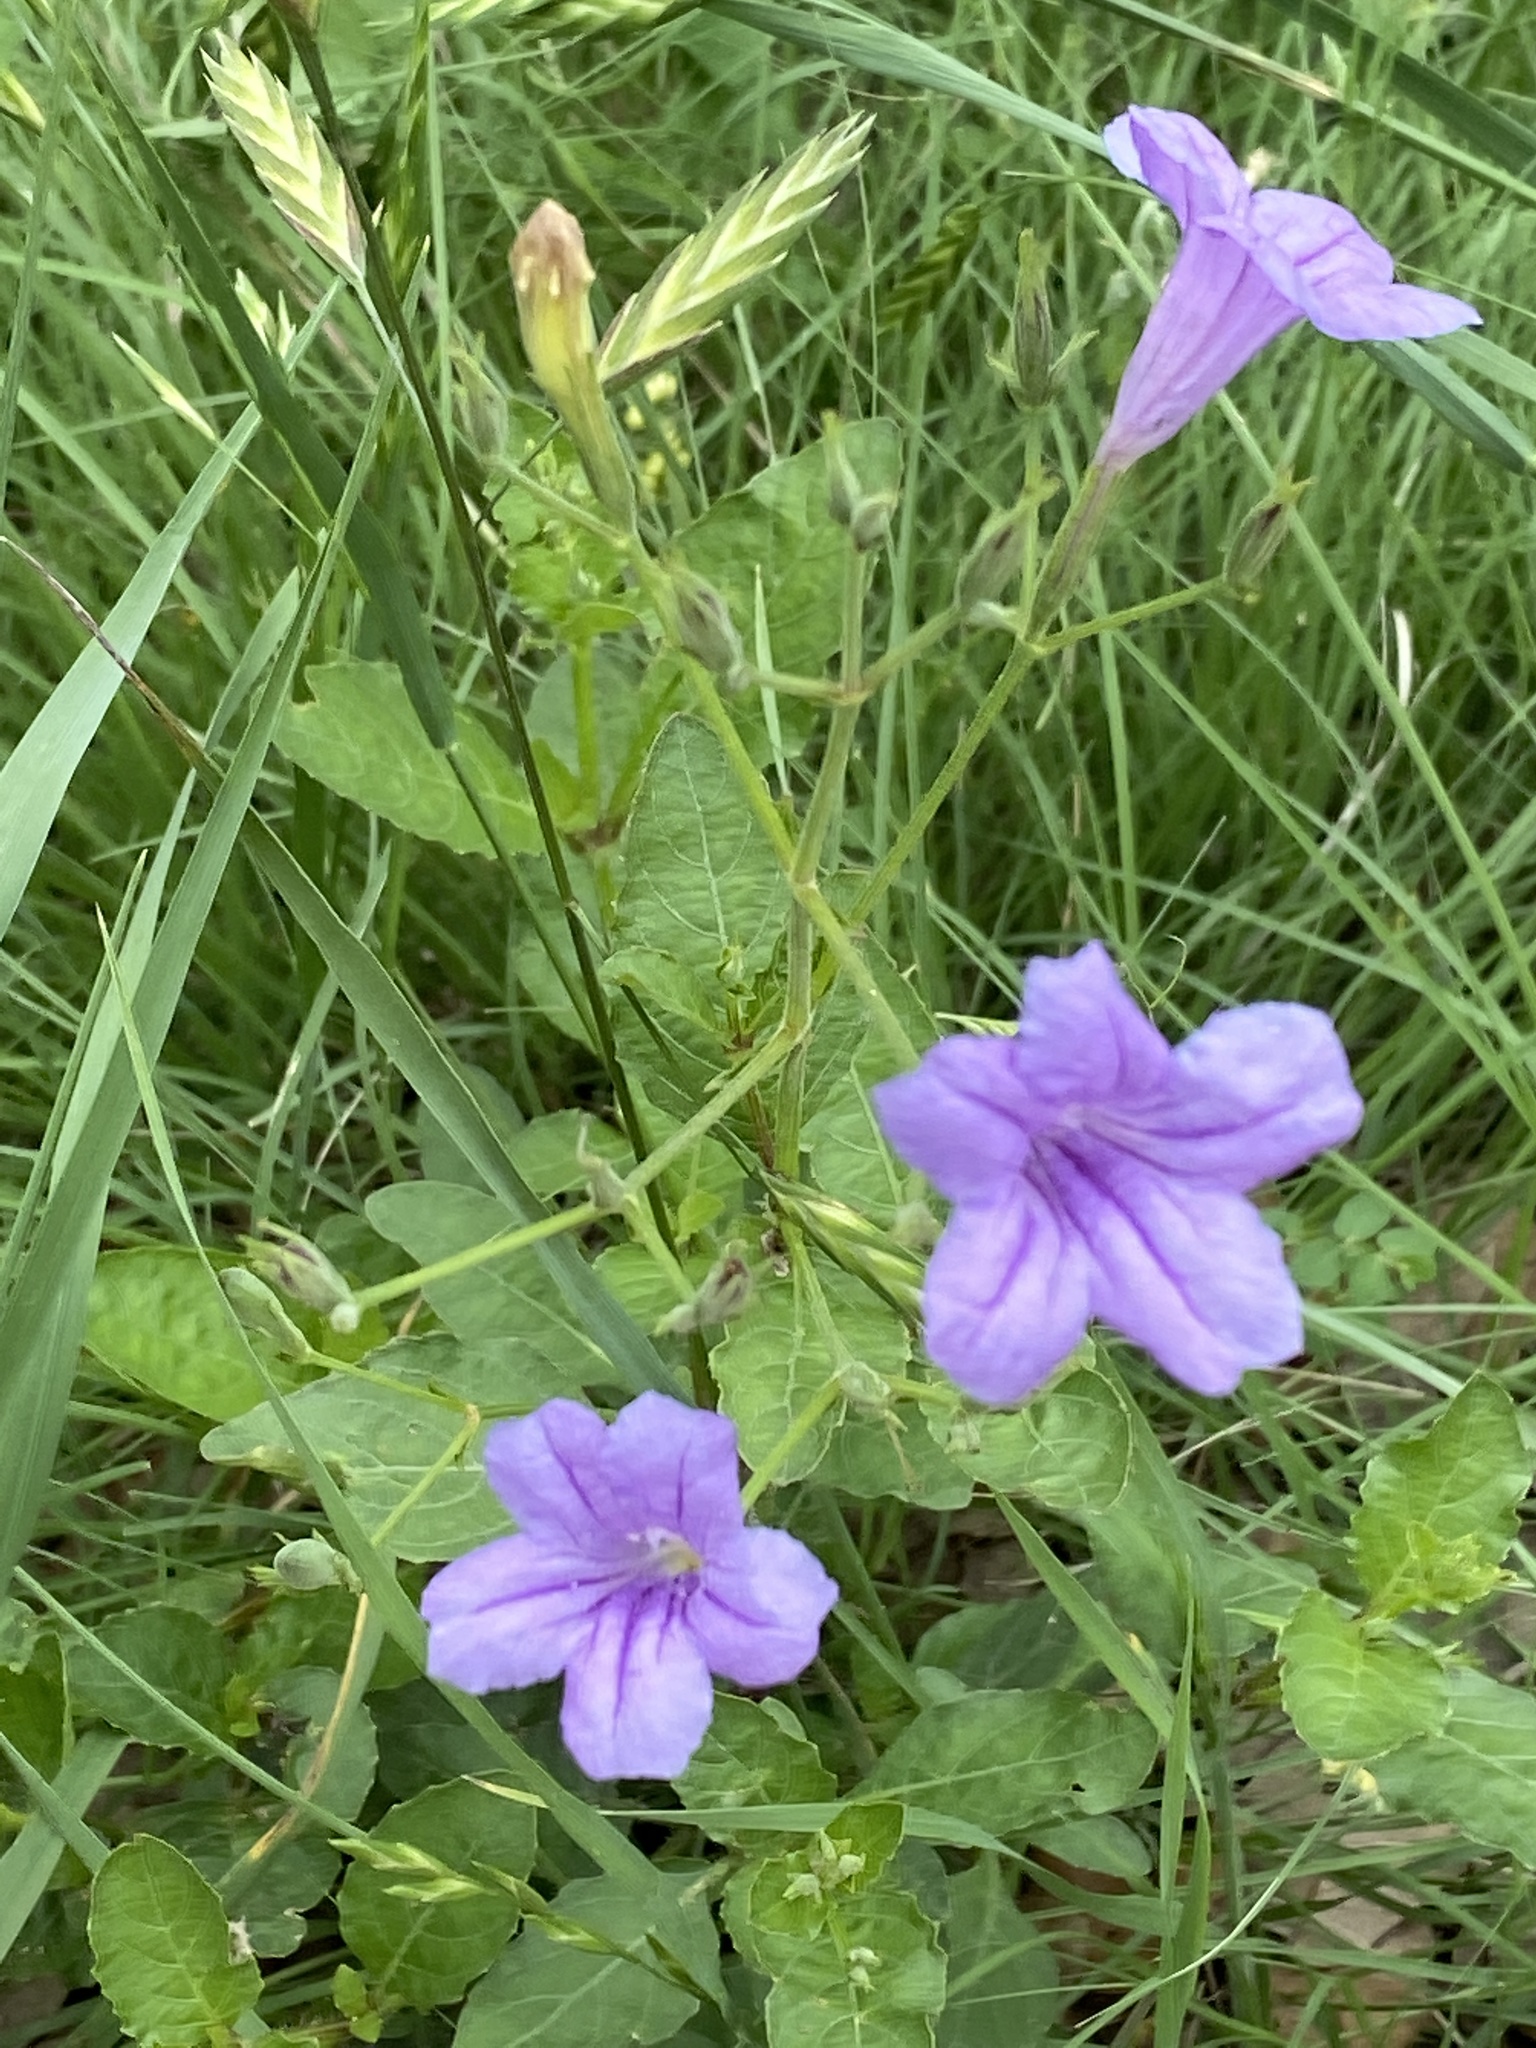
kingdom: Plantae
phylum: Tracheophyta
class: Magnoliopsida
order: Lamiales
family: Acanthaceae
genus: Ruellia
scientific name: Ruellia ciliatiflora
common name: Hairyflower wild petunia
